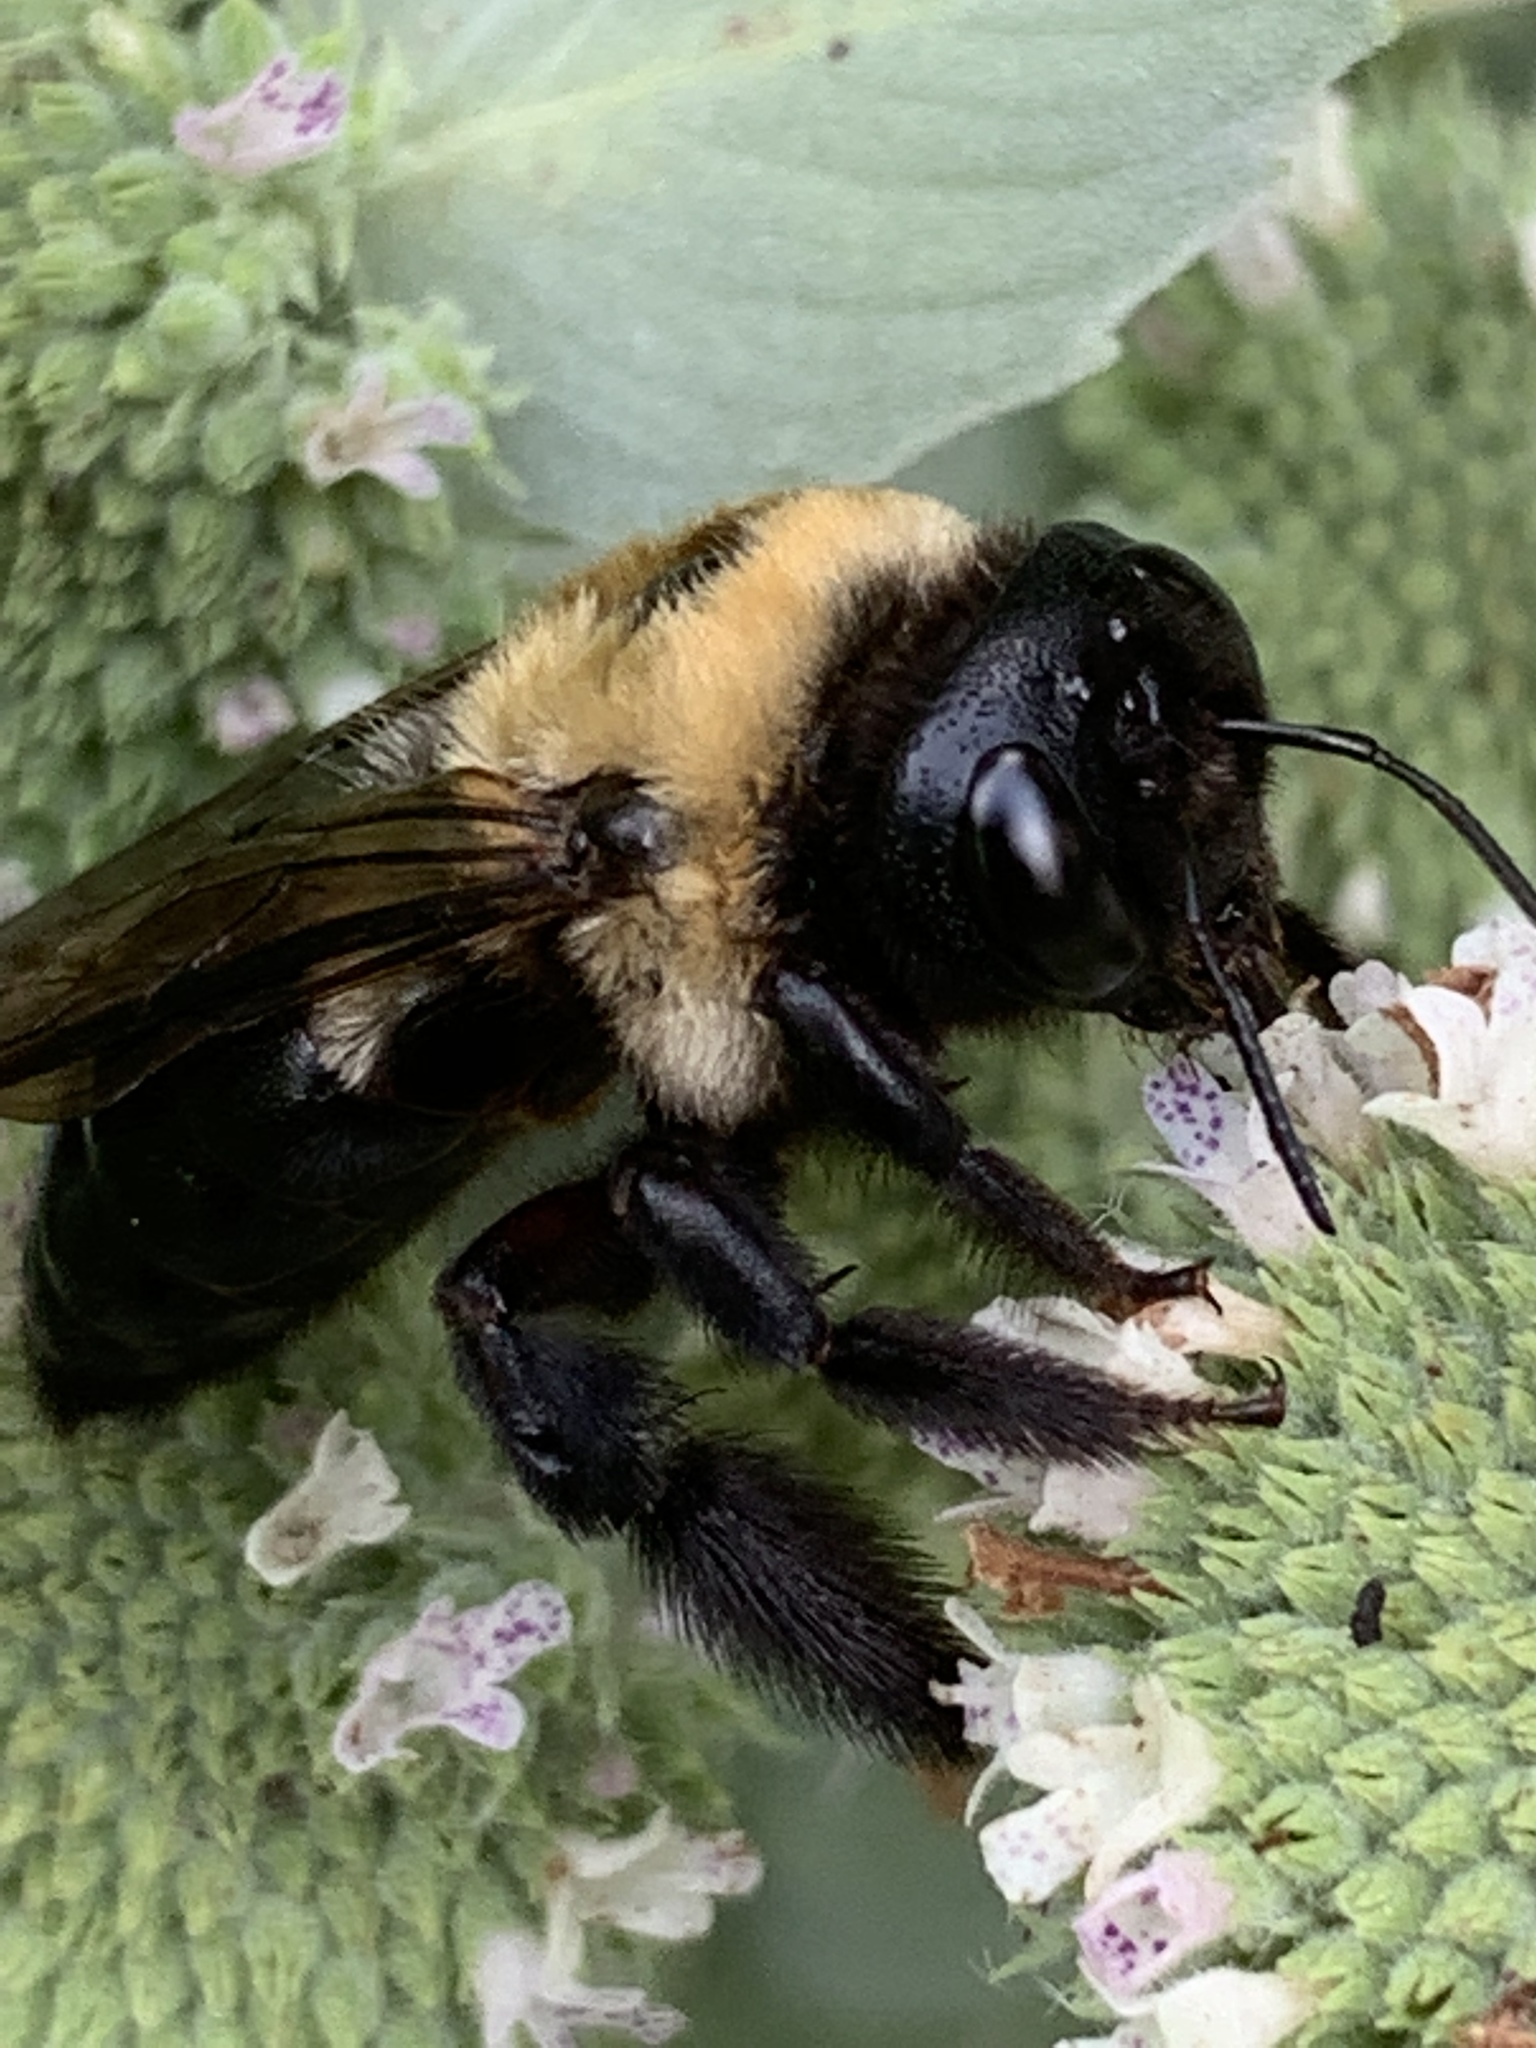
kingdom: Animalia
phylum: Arthropoda
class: Insecta
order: Hymenoptera
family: Apidae
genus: Xylocopa
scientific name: Xylocopa virginica
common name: Carpenter bee
